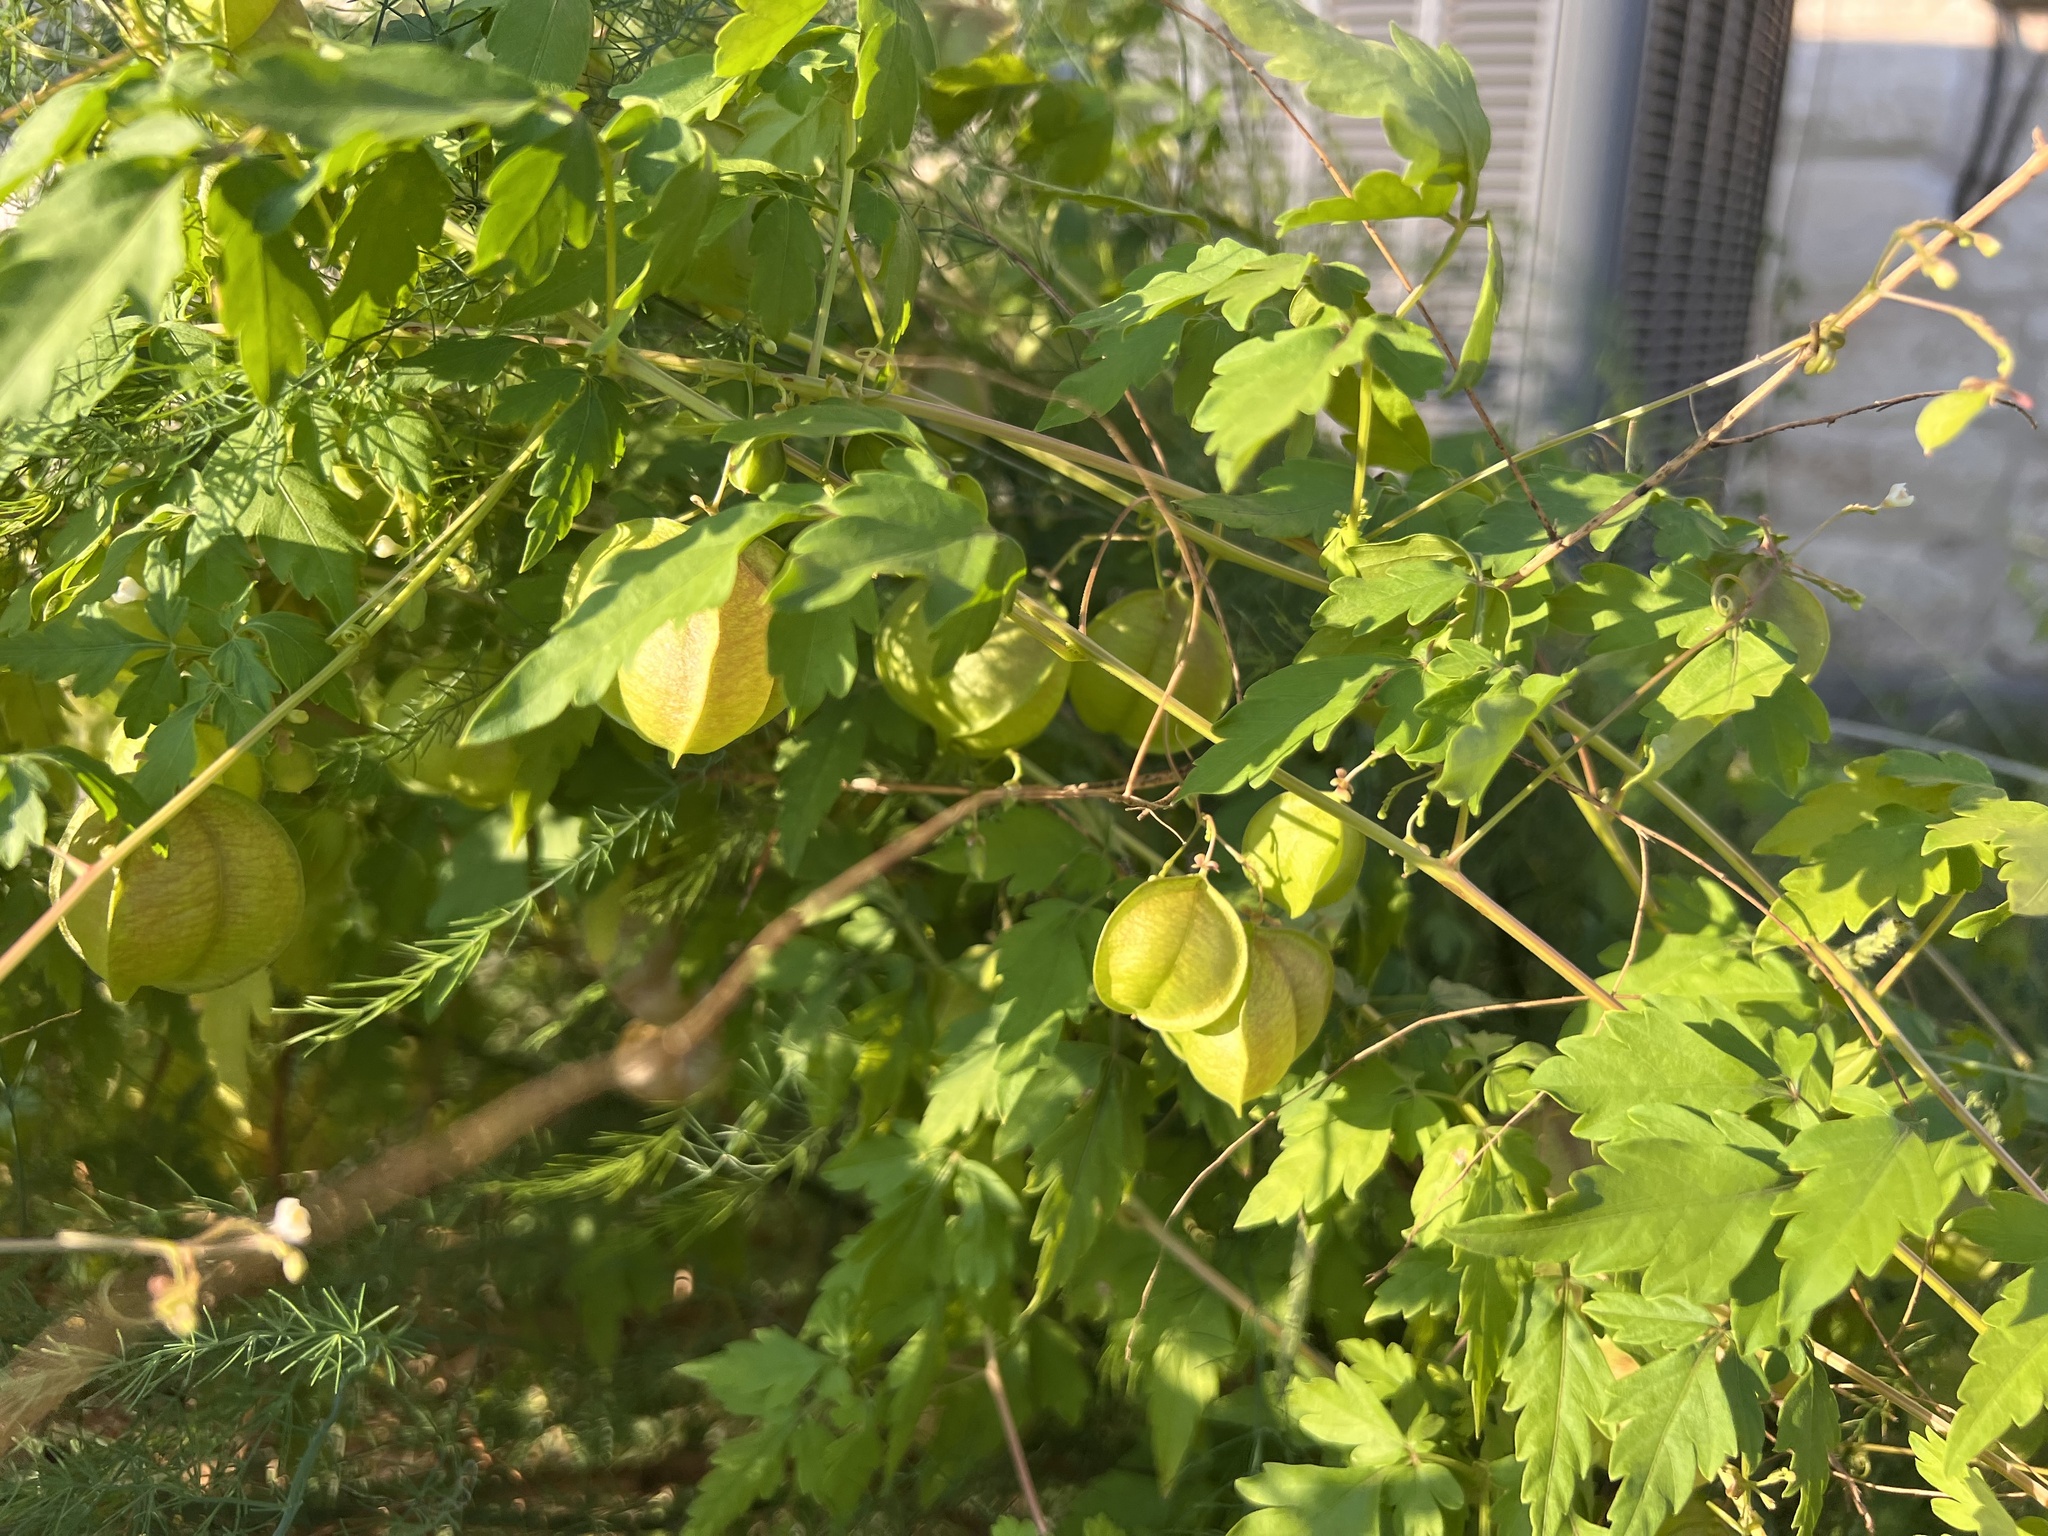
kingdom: Plantae
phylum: Tracheophyta
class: Magnoliopsida
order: Sapindales
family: Sapindaceae
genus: Cardiospermum
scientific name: Cardiospermum halicacabum
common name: Balloon vine
